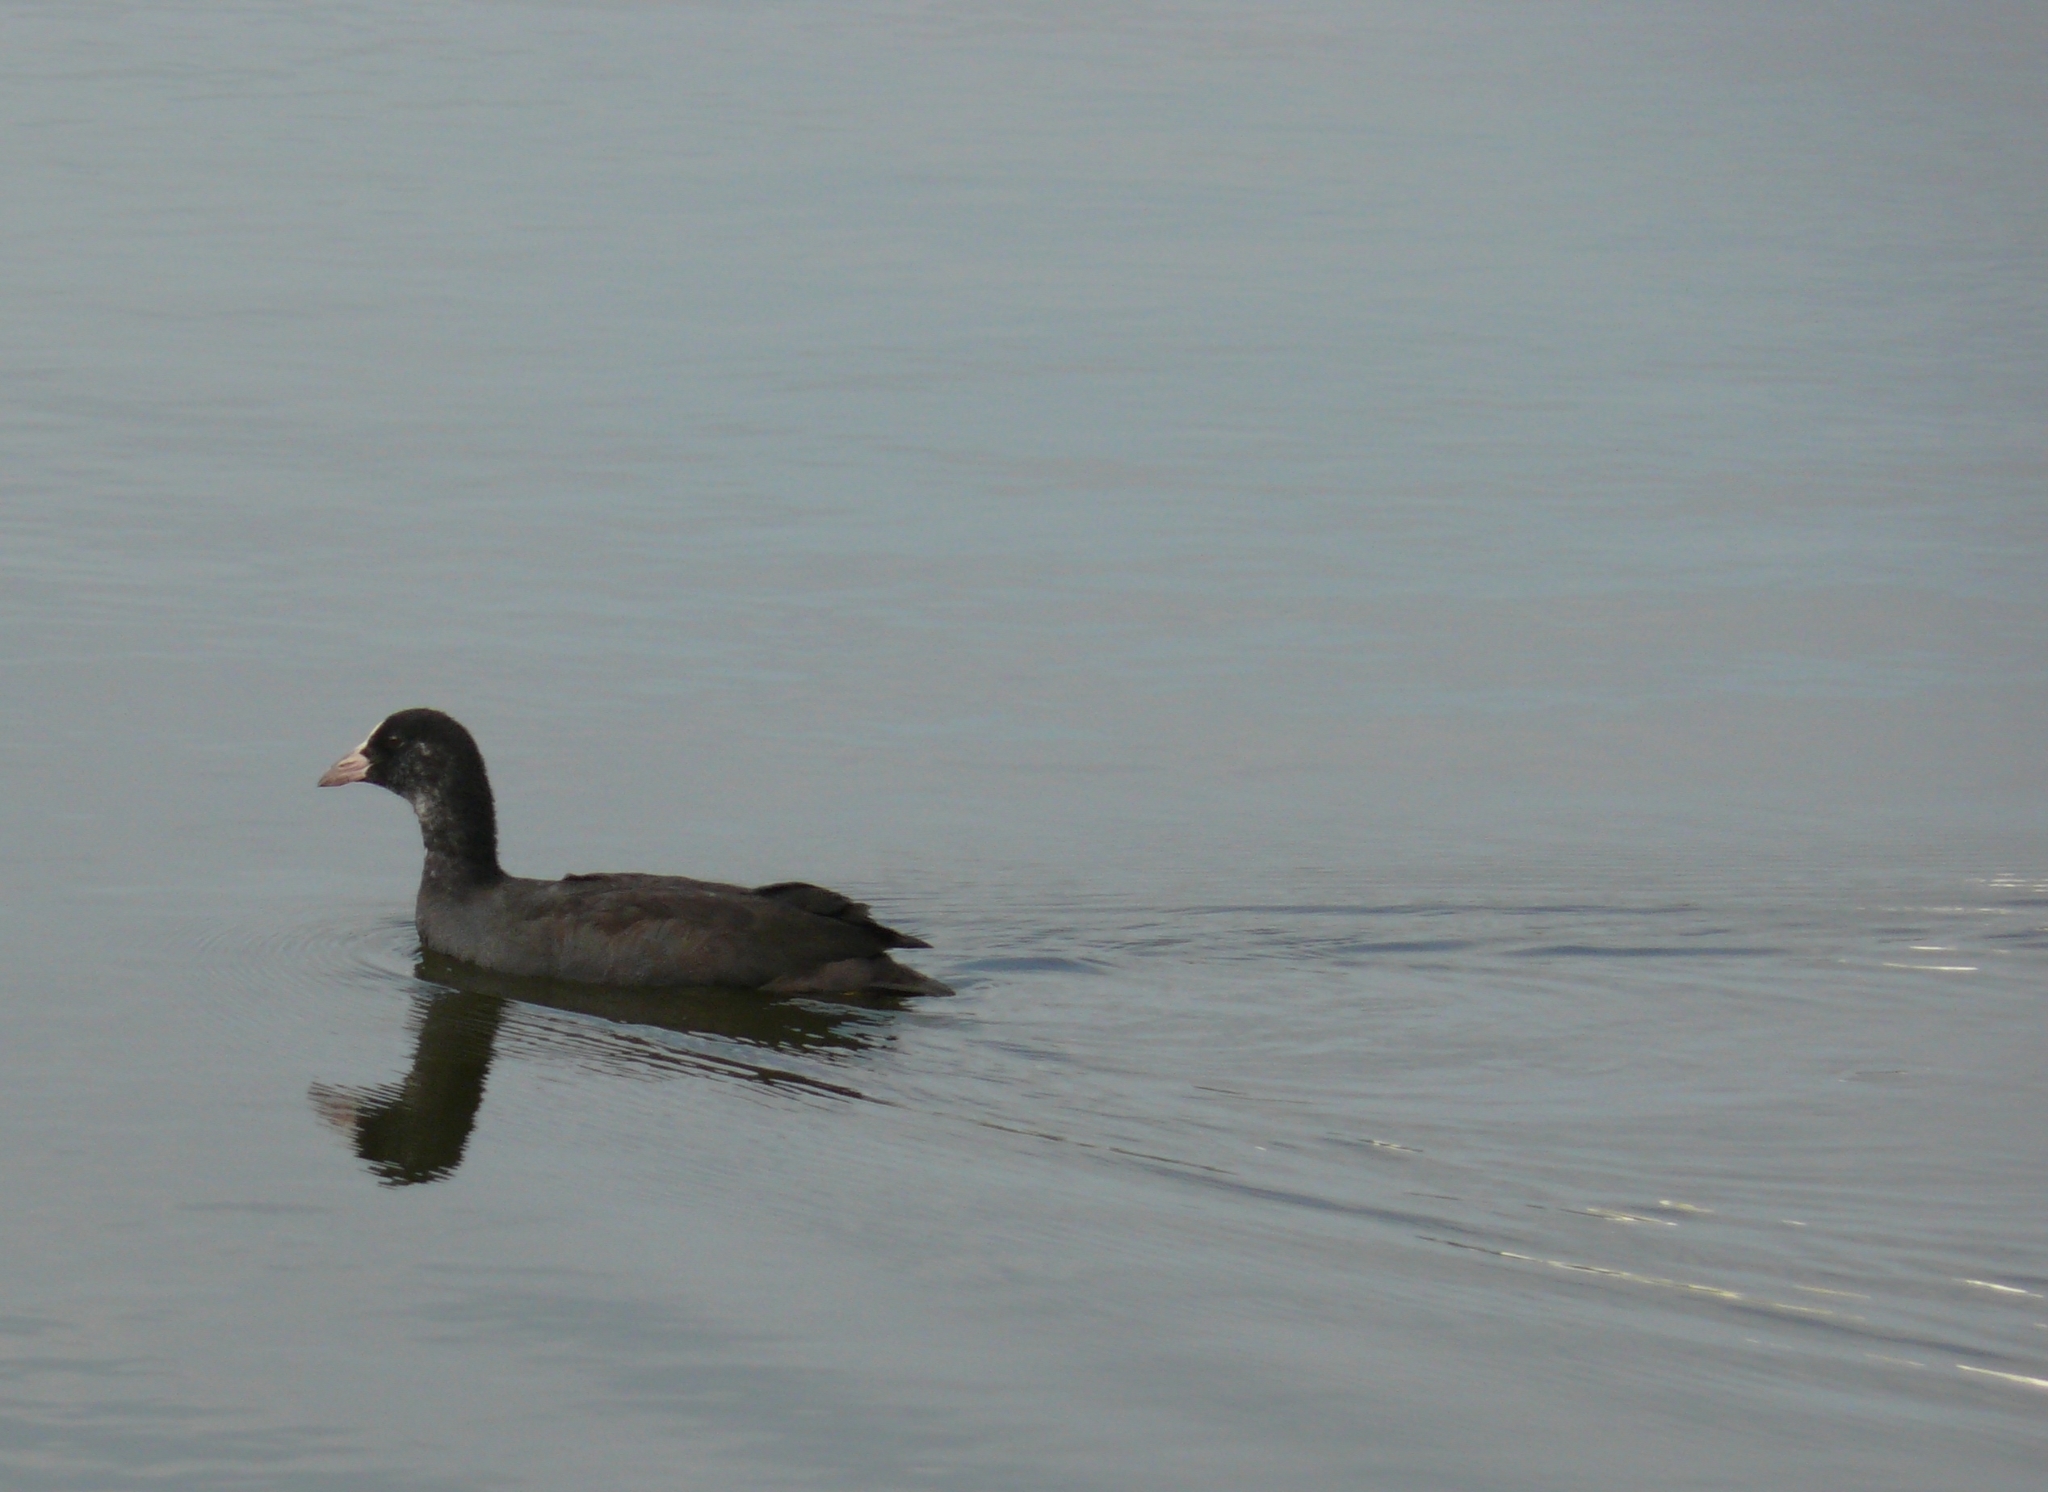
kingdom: Animalia
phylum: Chordata
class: Aves
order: Gruiformes
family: Rallidae
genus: Fulica
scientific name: Fulica atra
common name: Eurasian coot
